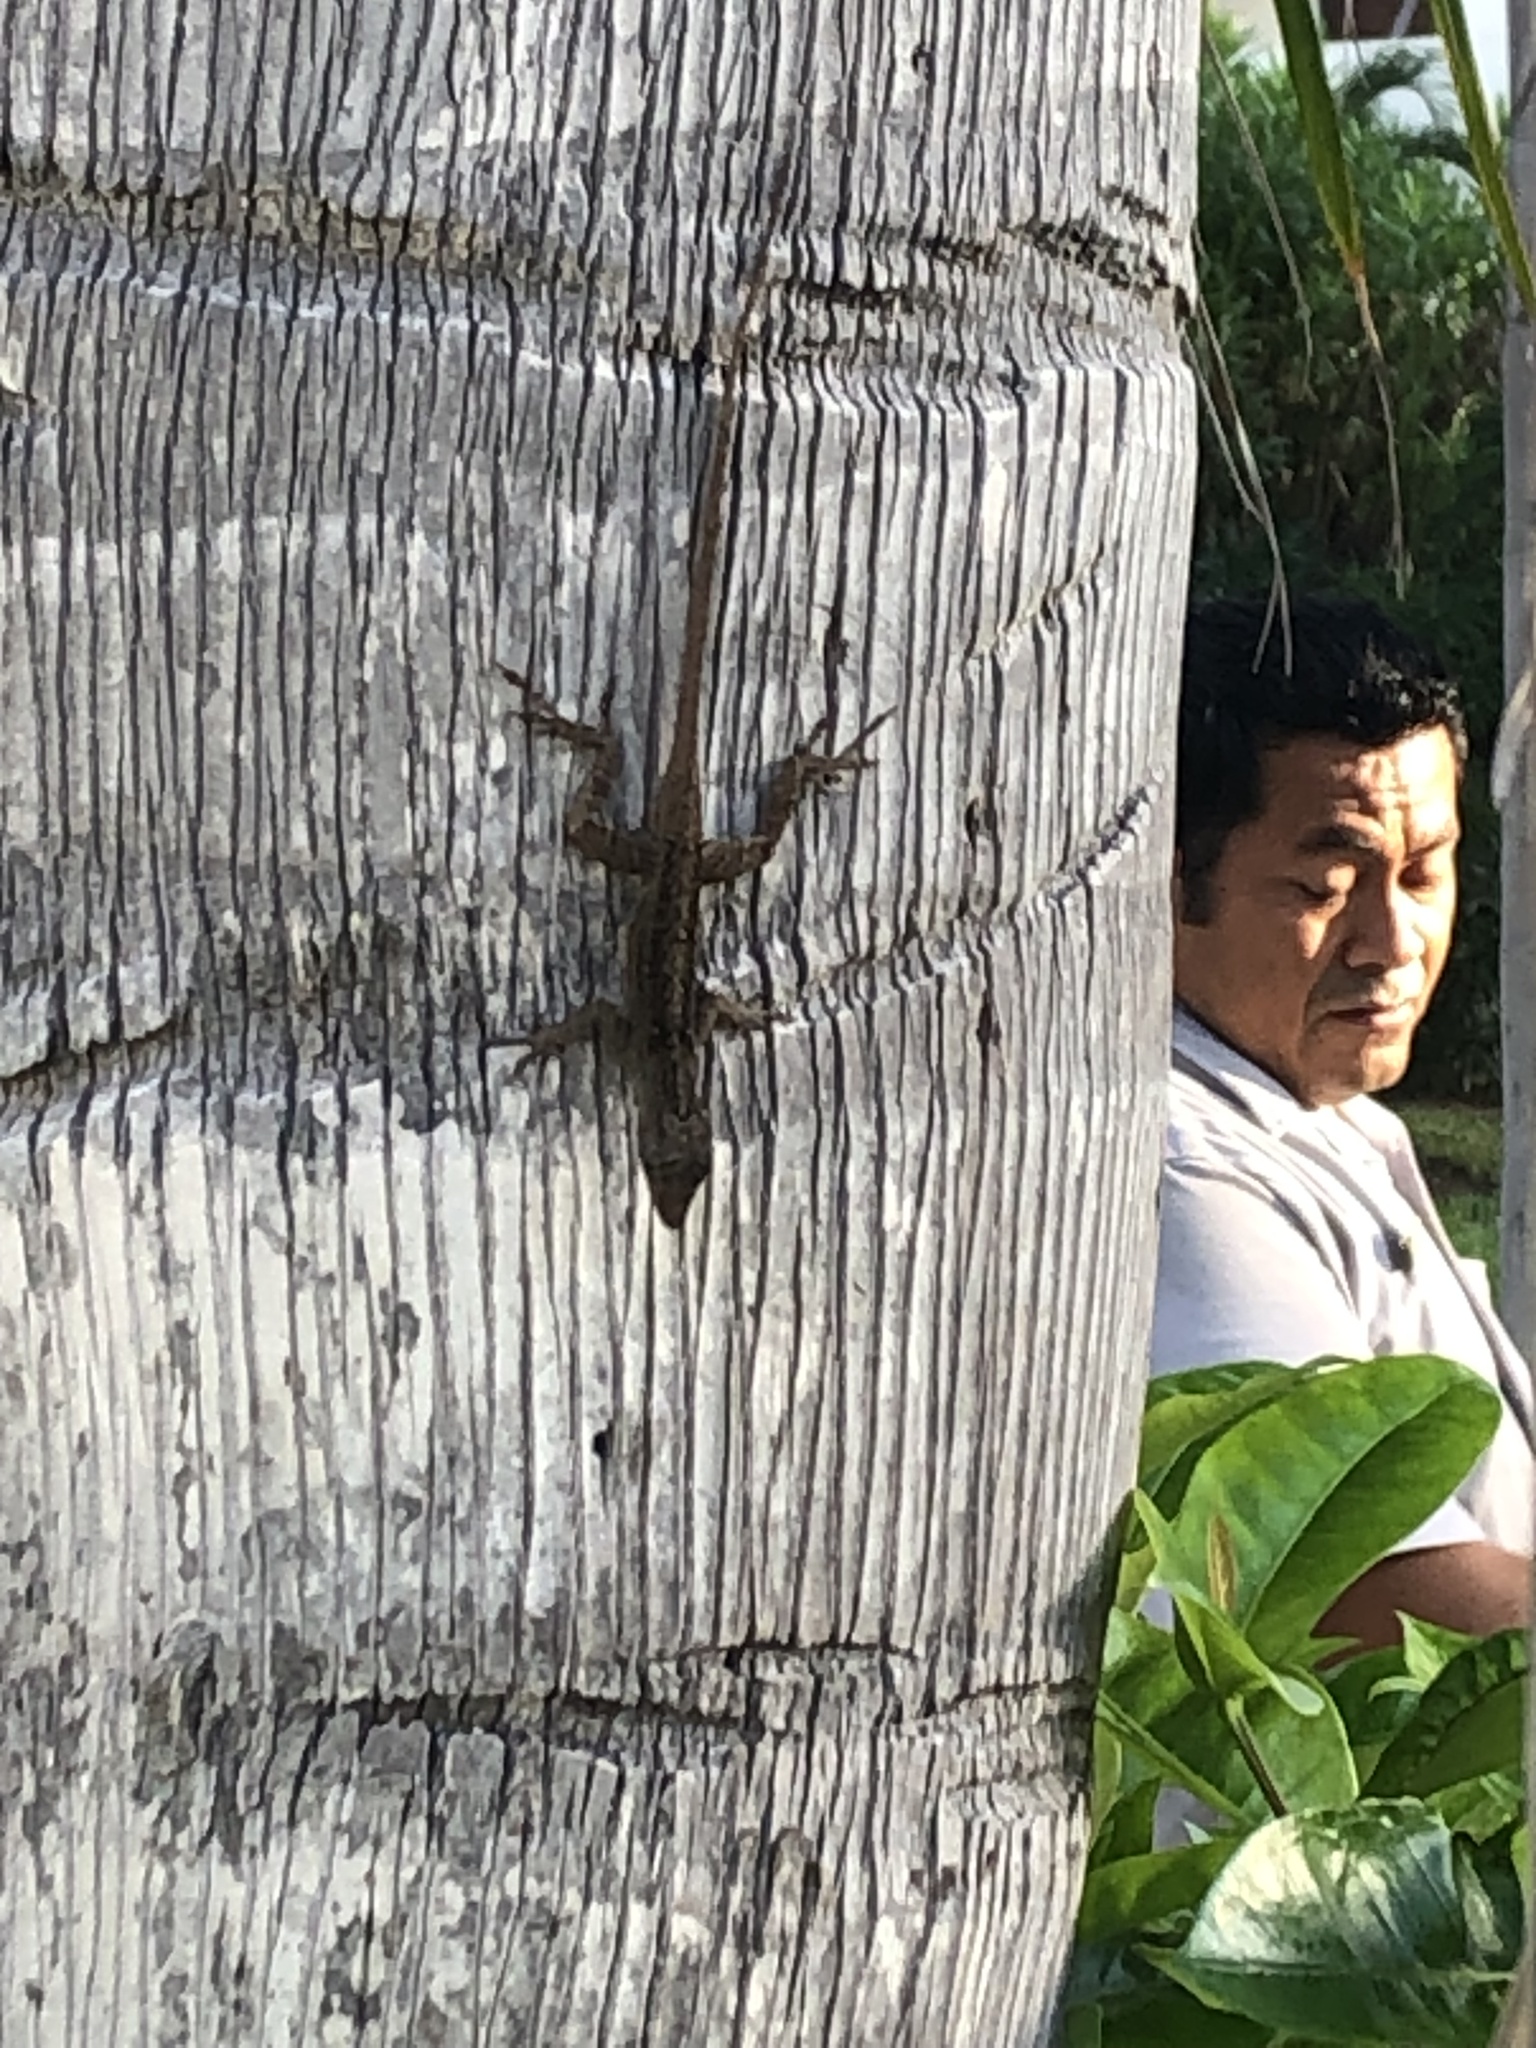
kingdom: Animalia
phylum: Chordata
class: Squamata
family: Dactyloidae
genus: Anolis
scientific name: Anolis sagrei
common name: Brown anole
